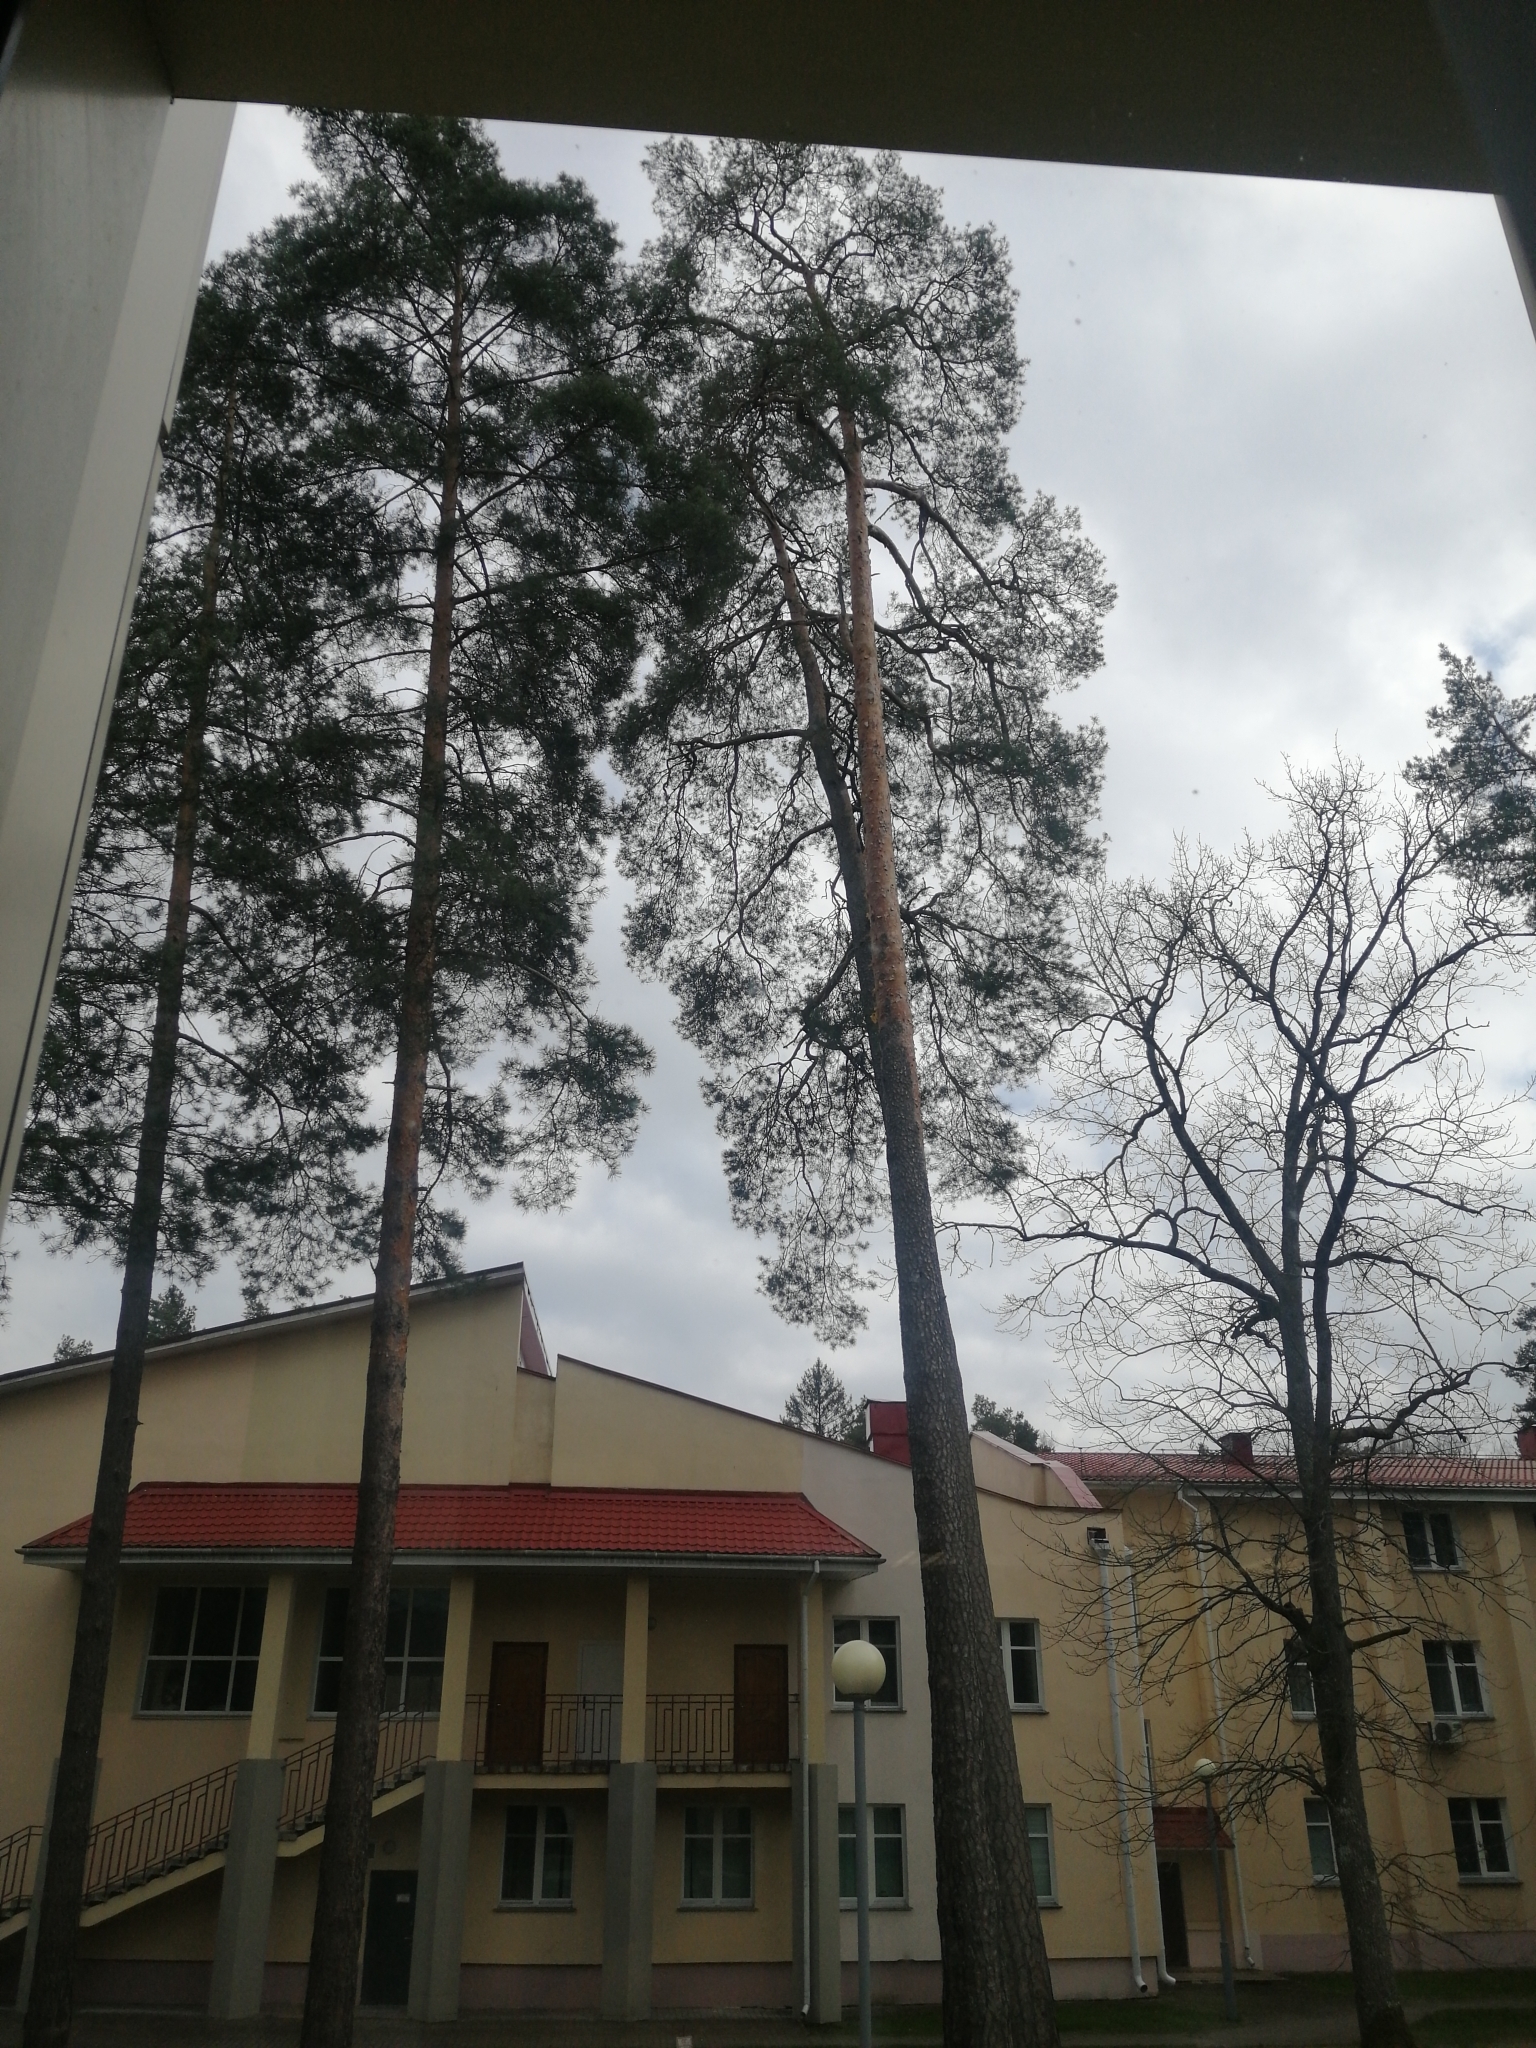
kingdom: Plantae
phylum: Tracheophyta
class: Pinopsida
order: Pinales
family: Pinaceae
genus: Pinus
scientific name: Pinus sylvestris
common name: Scots pine
